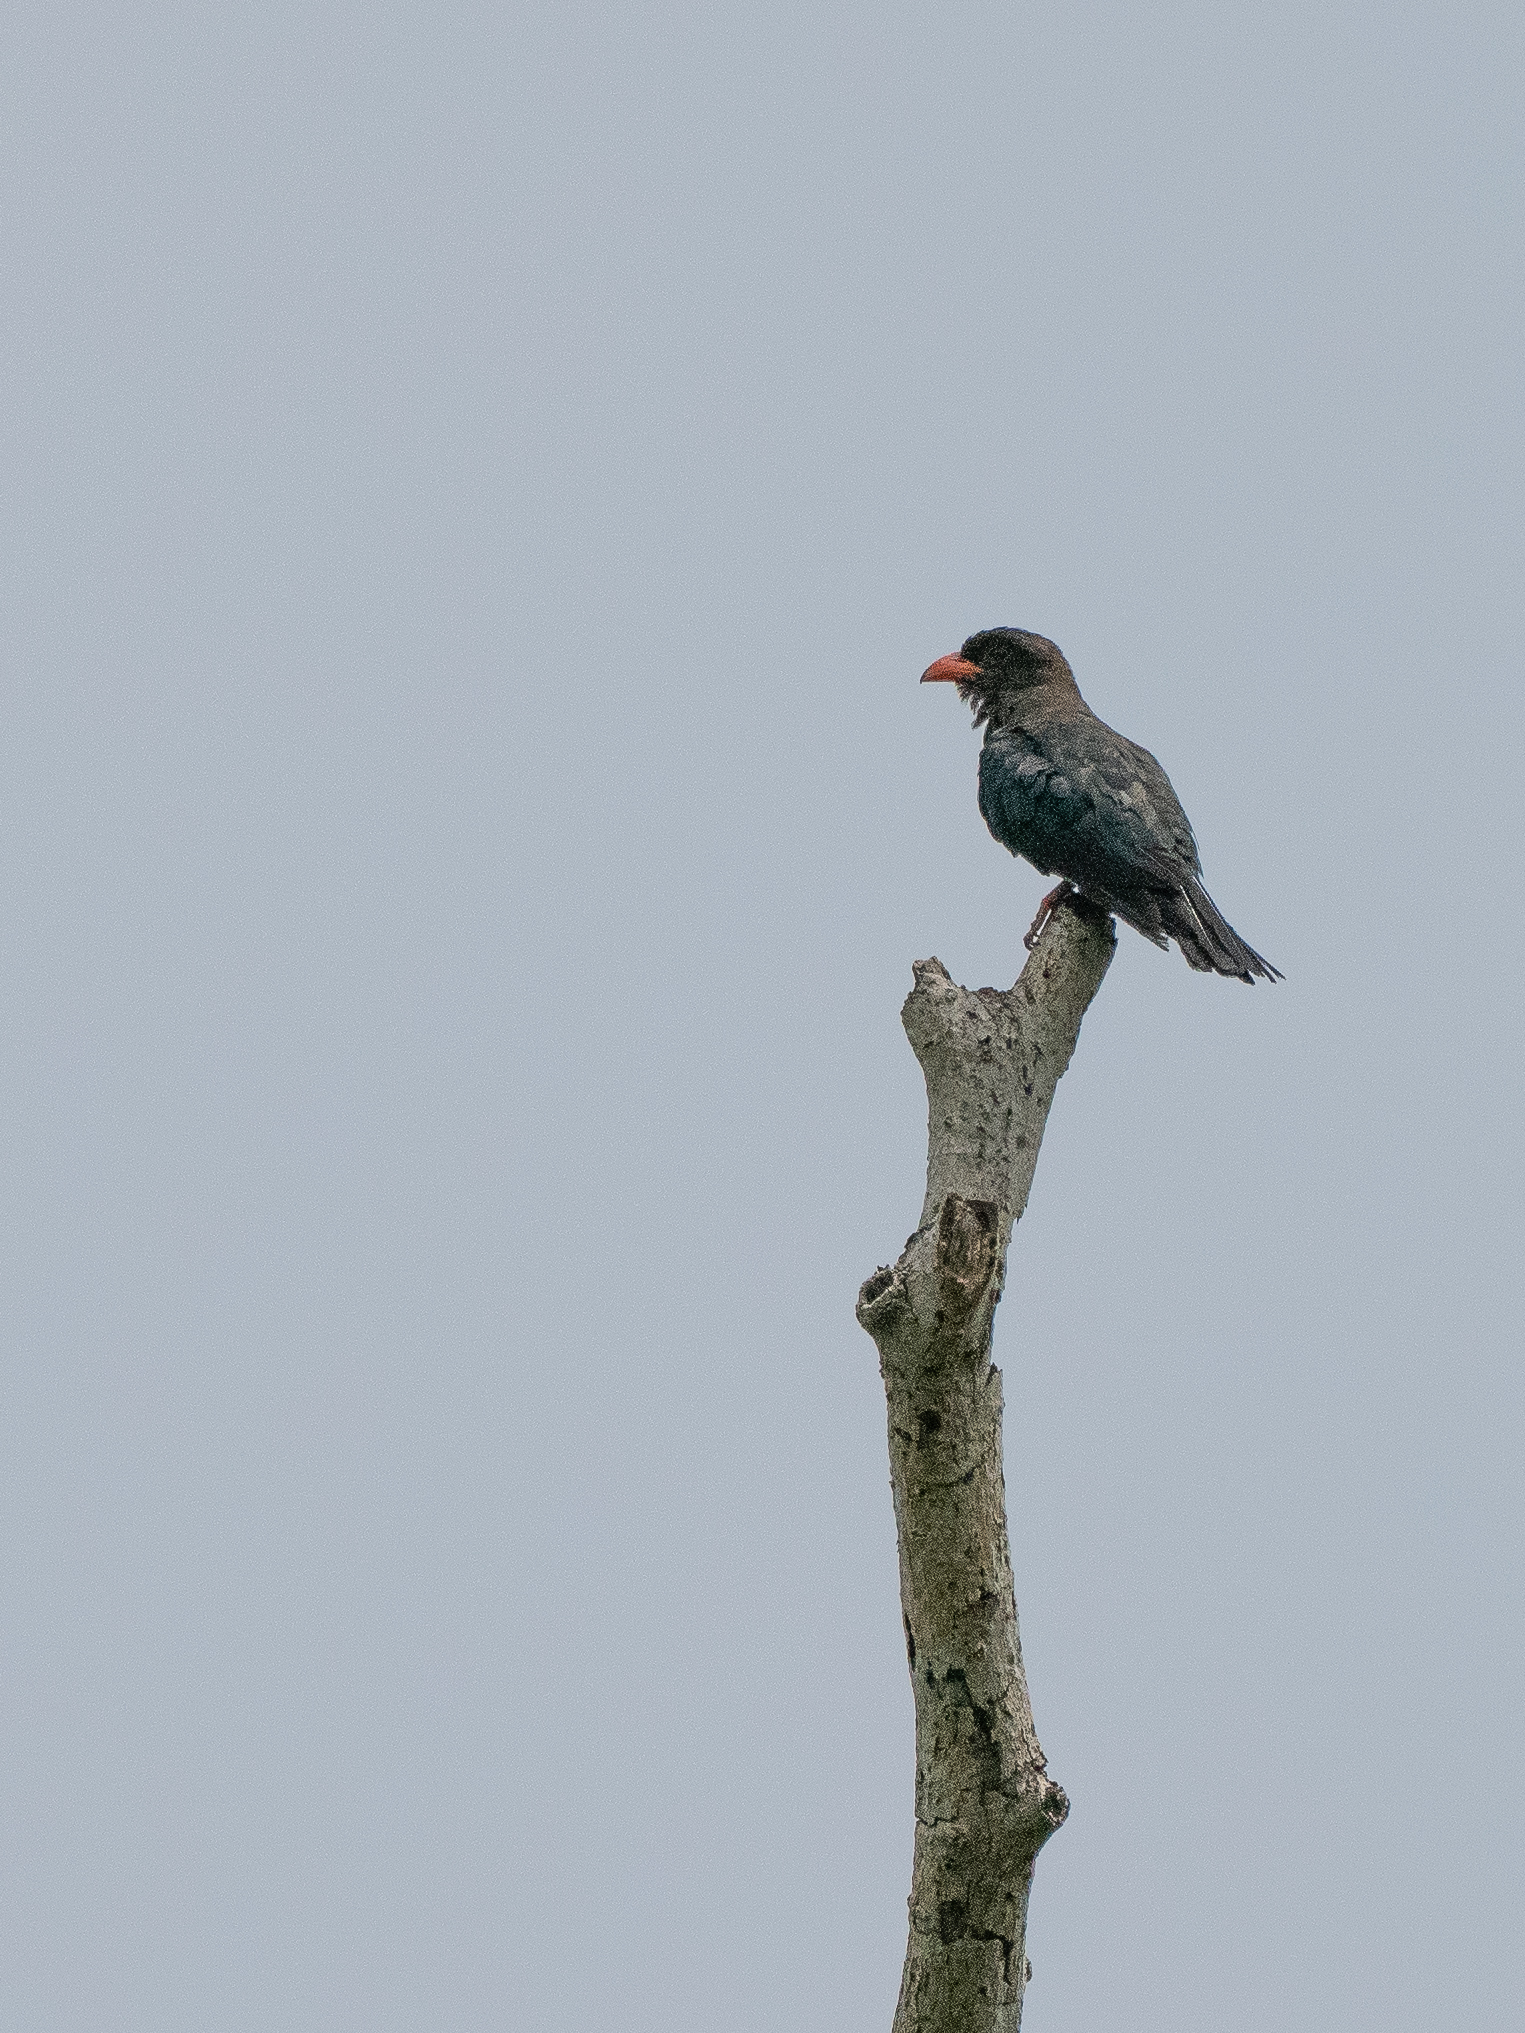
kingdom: Animalia
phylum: Chordata
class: Aves
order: Coraciiformes
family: Coraciidae
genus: Eurystomus
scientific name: Eurystomus orientalis
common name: Oriental dollarbird
